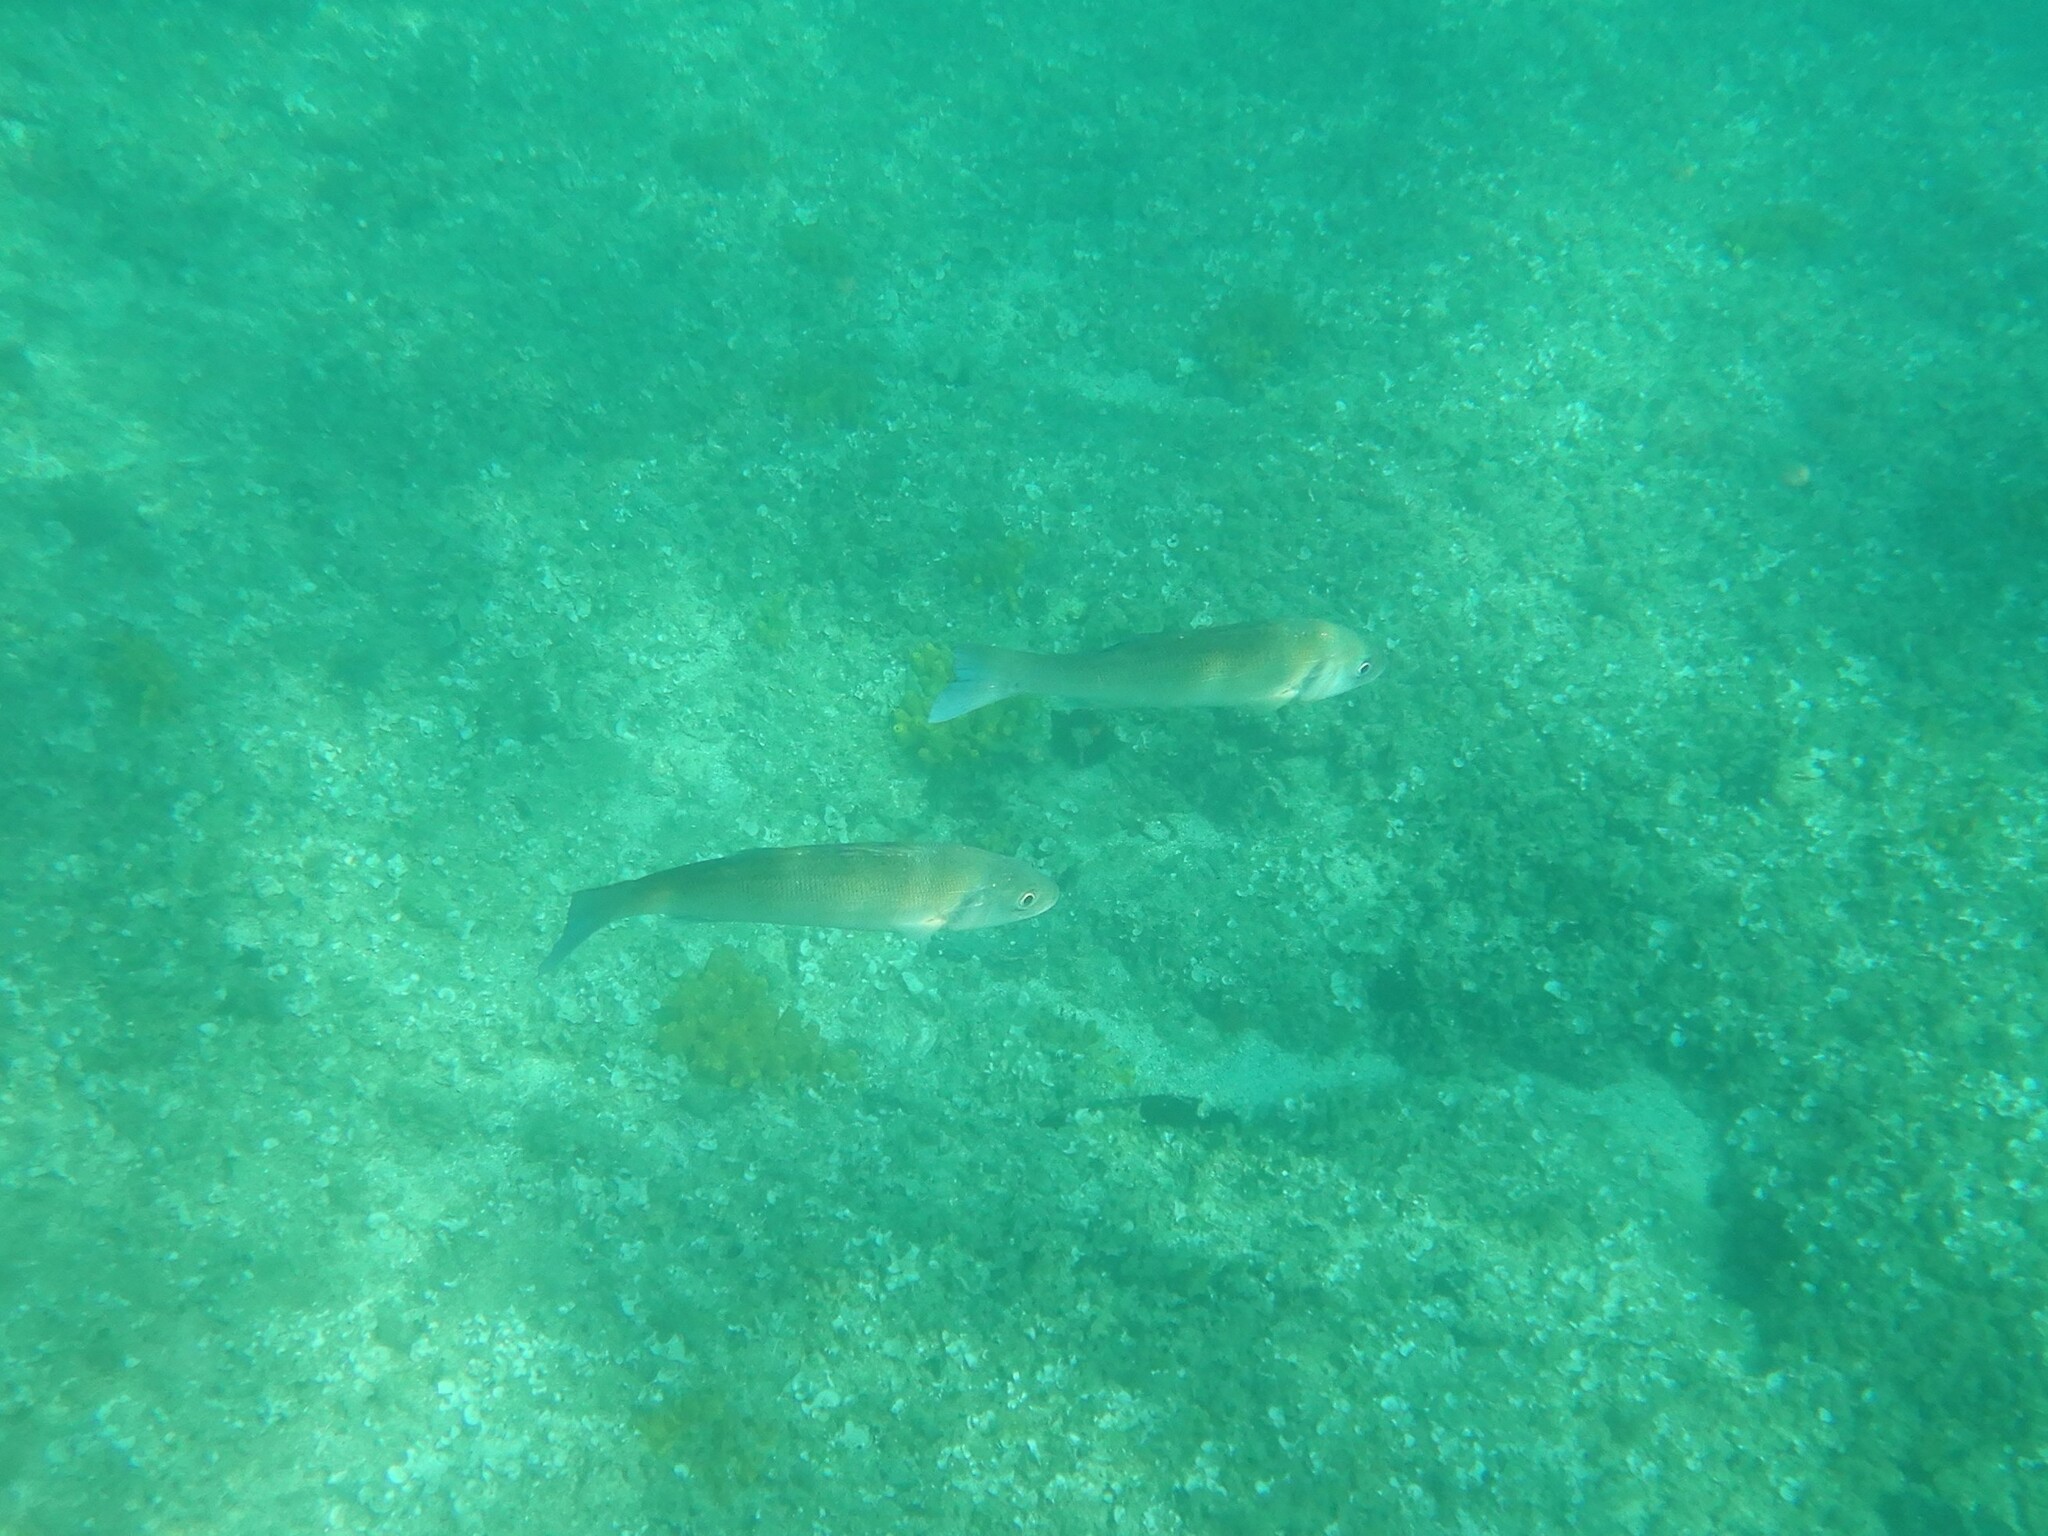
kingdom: Animalia
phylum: Chordata
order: Perciformes
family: Moronidae
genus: Dicentrarchus
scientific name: Dicentrarchus labrax
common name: European seabass
